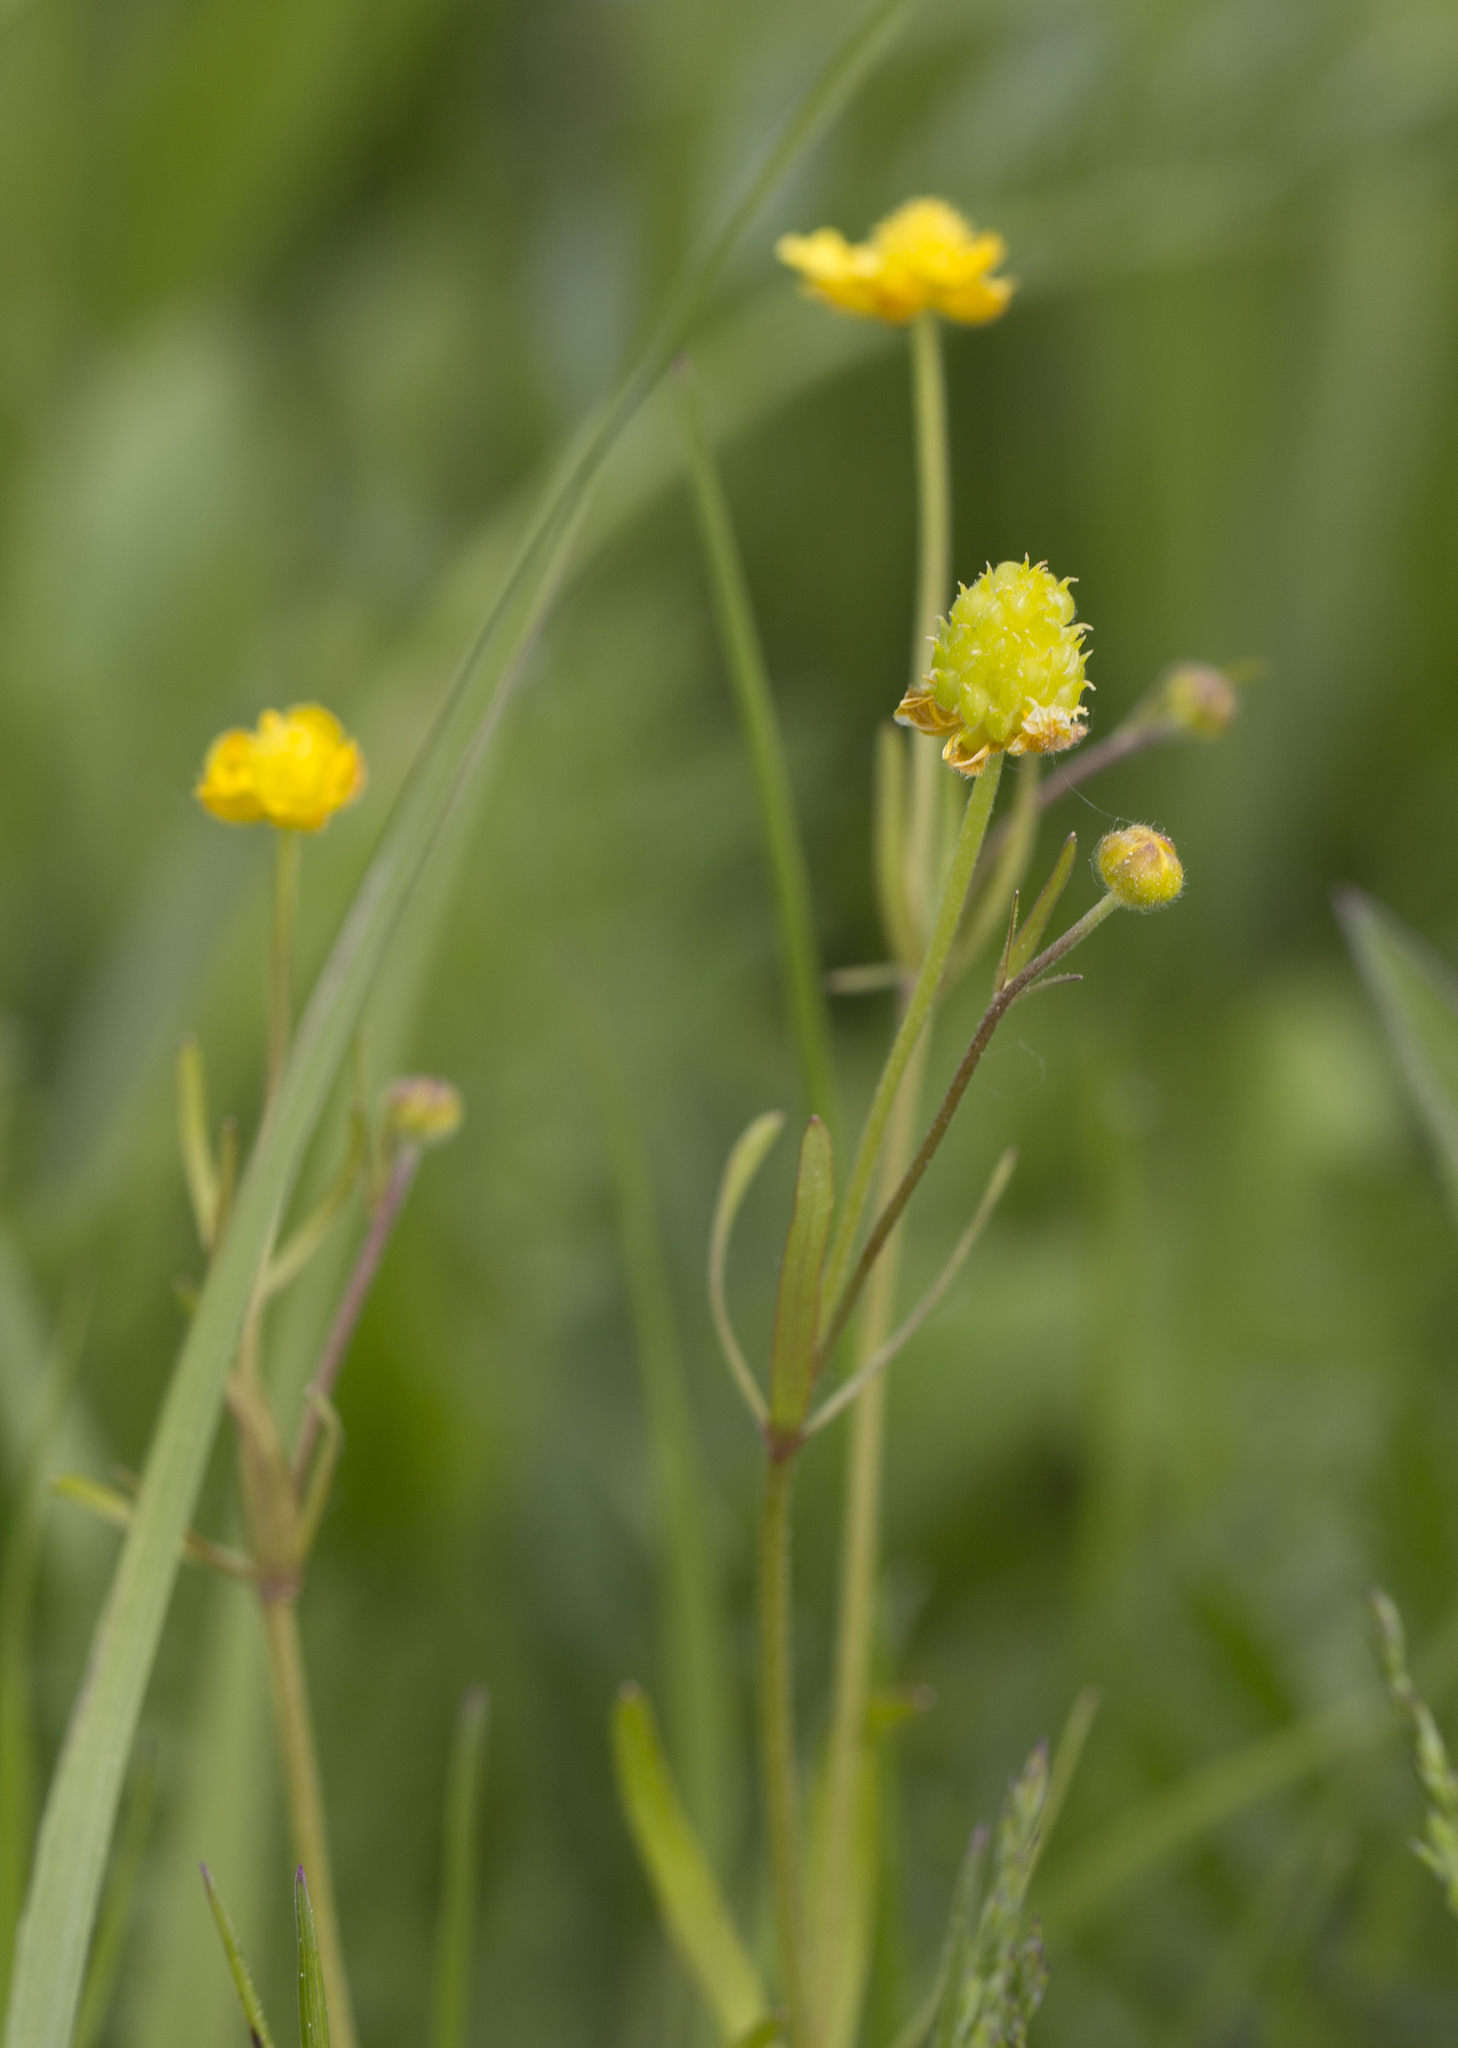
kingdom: Plantae
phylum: Tracheophyta
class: Magnoliopsida
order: Ranunculales
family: Ranunculaceae
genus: Ranunculus
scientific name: Ranunculus auricomus
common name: Goldilocks buttercup
